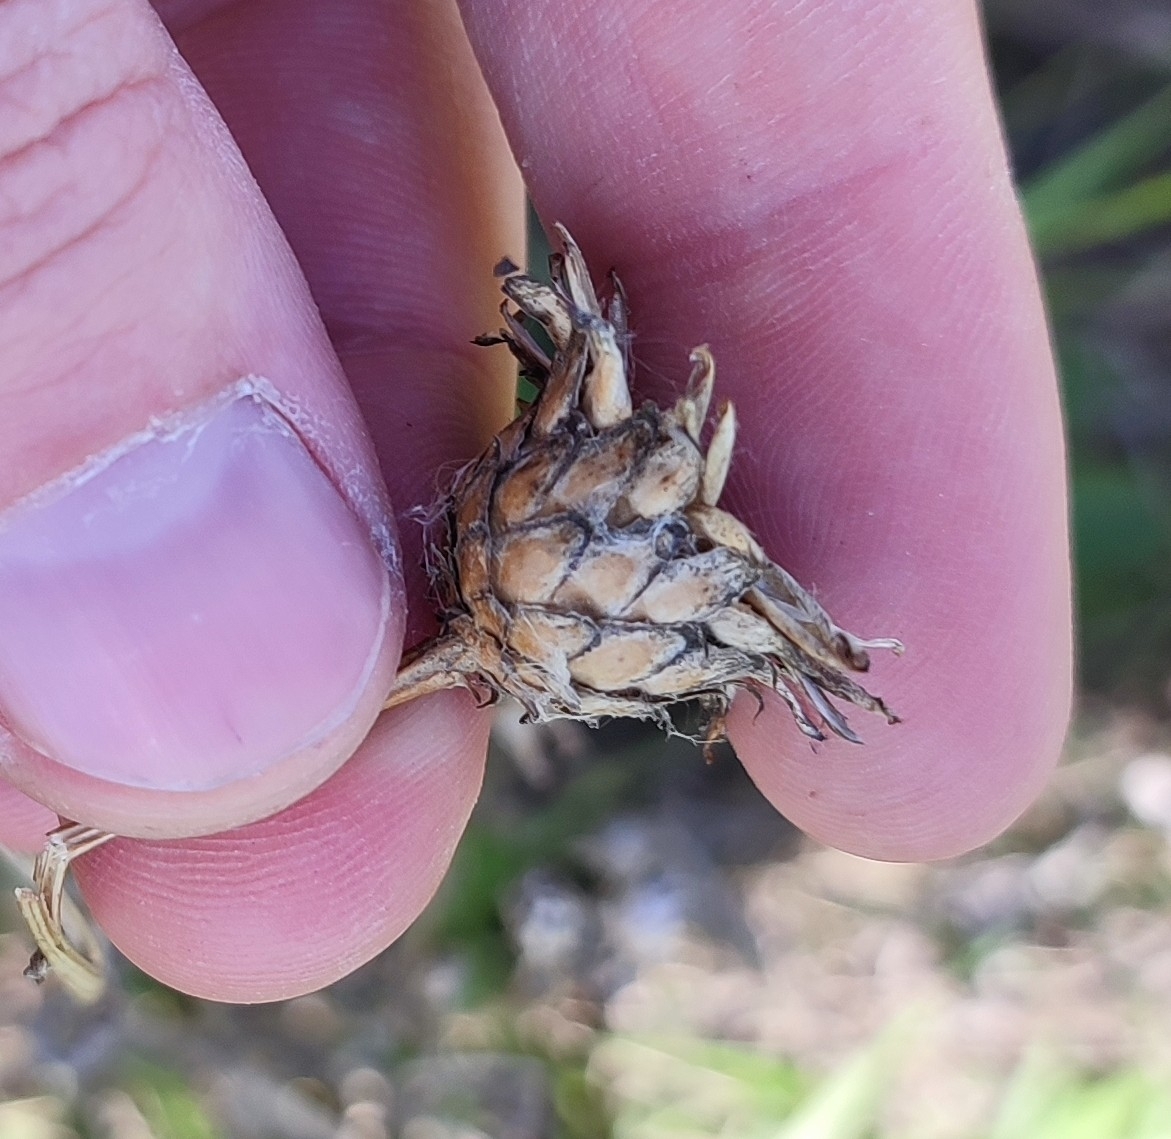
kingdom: Plantae
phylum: Tracheophyta
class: Magnoliopsida
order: Asterales
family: Asteraceae
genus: Centaurea
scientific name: Centaurea scabiosa
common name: Greater knapweed
